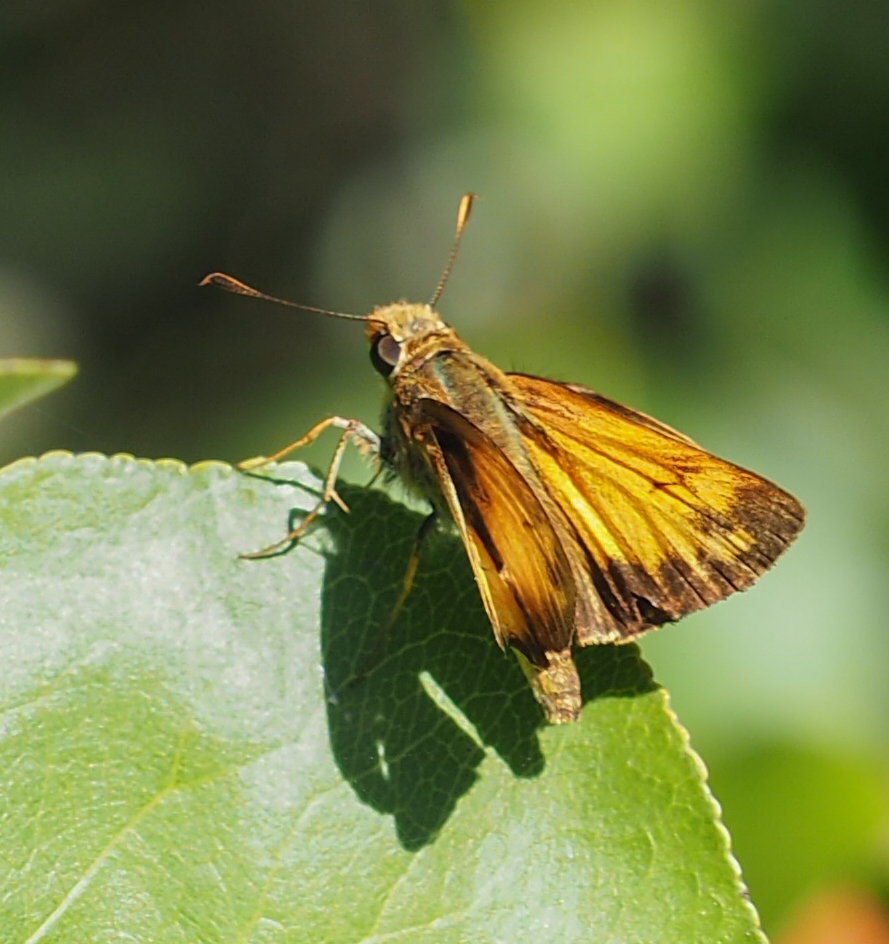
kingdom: Animalia
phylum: Arthropoda
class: Insecta
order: Lepidoptera
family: Hesperiidae
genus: Lon
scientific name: Lon zabulon
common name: Zabulon skipper
